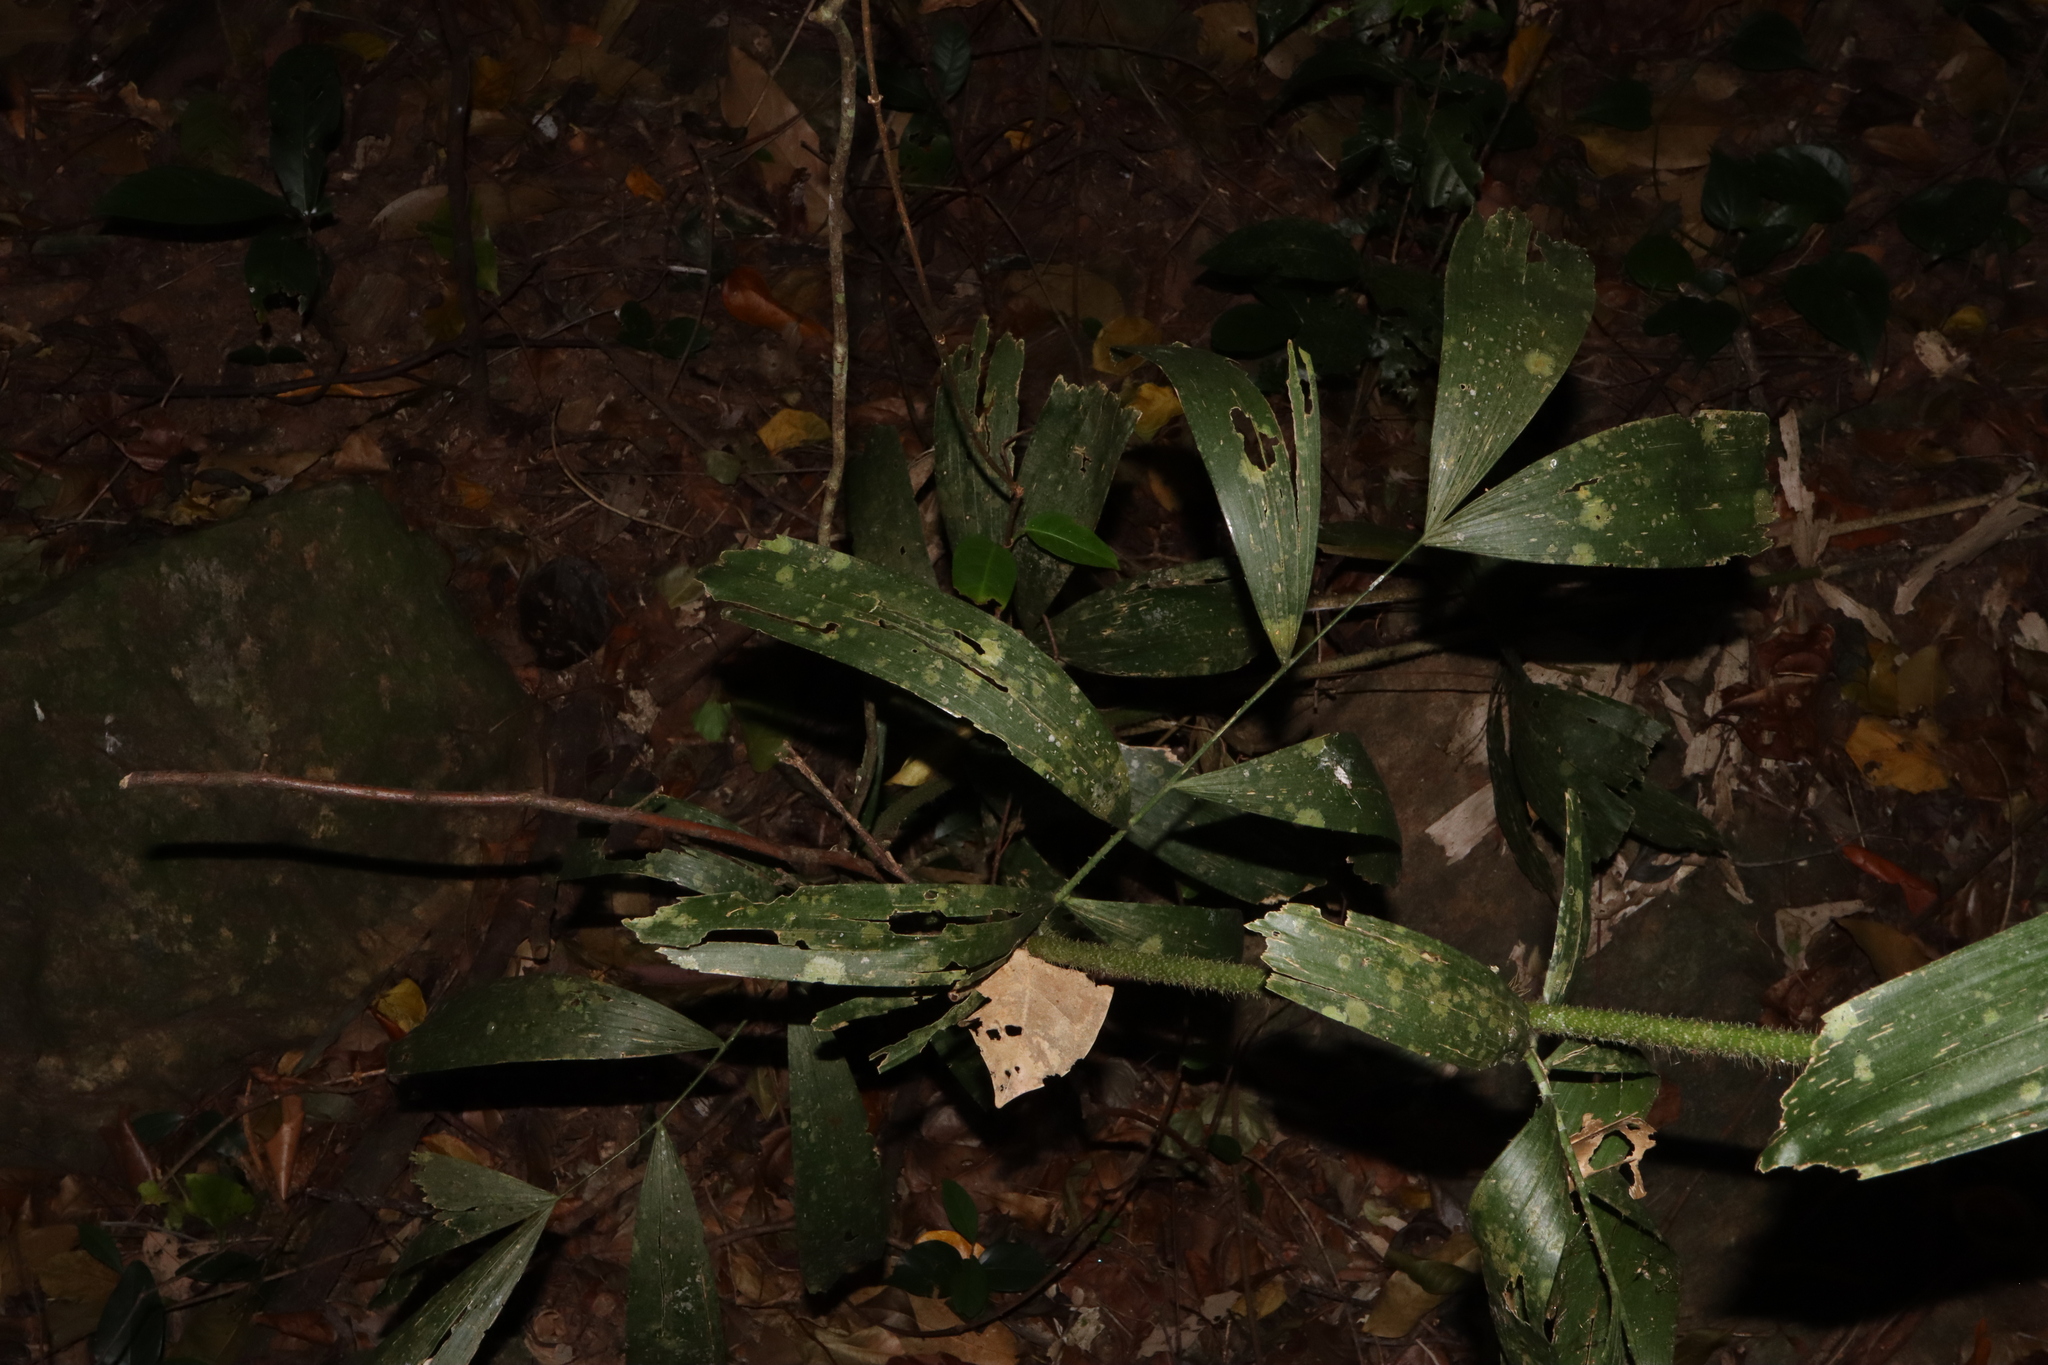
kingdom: Plantae
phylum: Tracheophyta
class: Liliopsida
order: Arecales
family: Arecaceae
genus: Calamus
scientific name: Calamus caryotoides
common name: Fishtail lawyer cane
